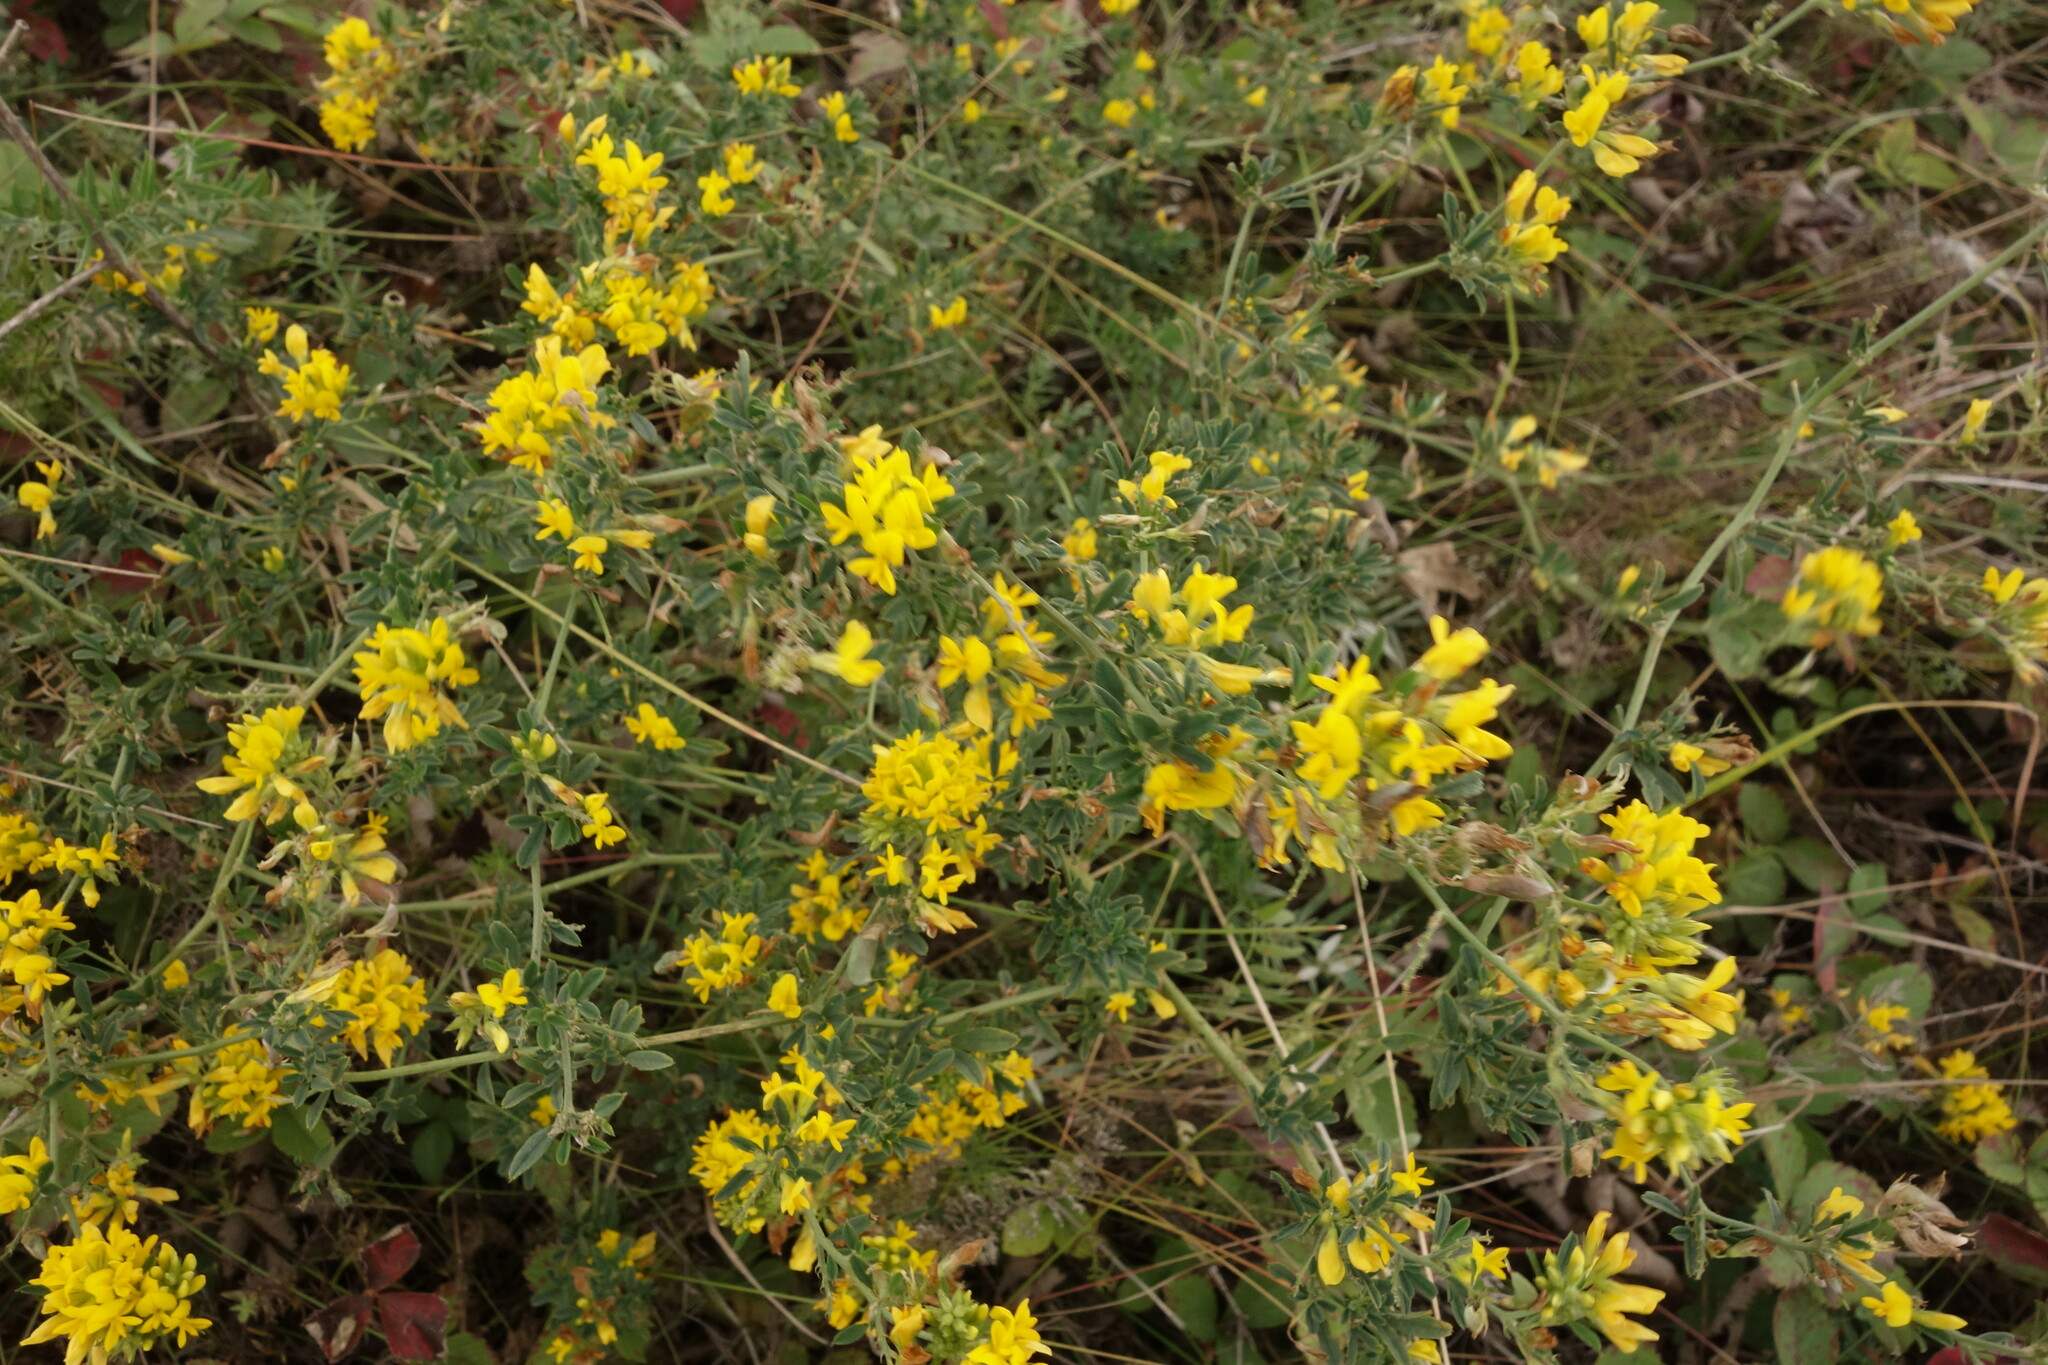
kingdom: Plantae
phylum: Tracheophyta
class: Magnoliopsida
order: Fabales
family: Fabaceae
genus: Medicago
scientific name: Medicago falcata
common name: Sickle medick
